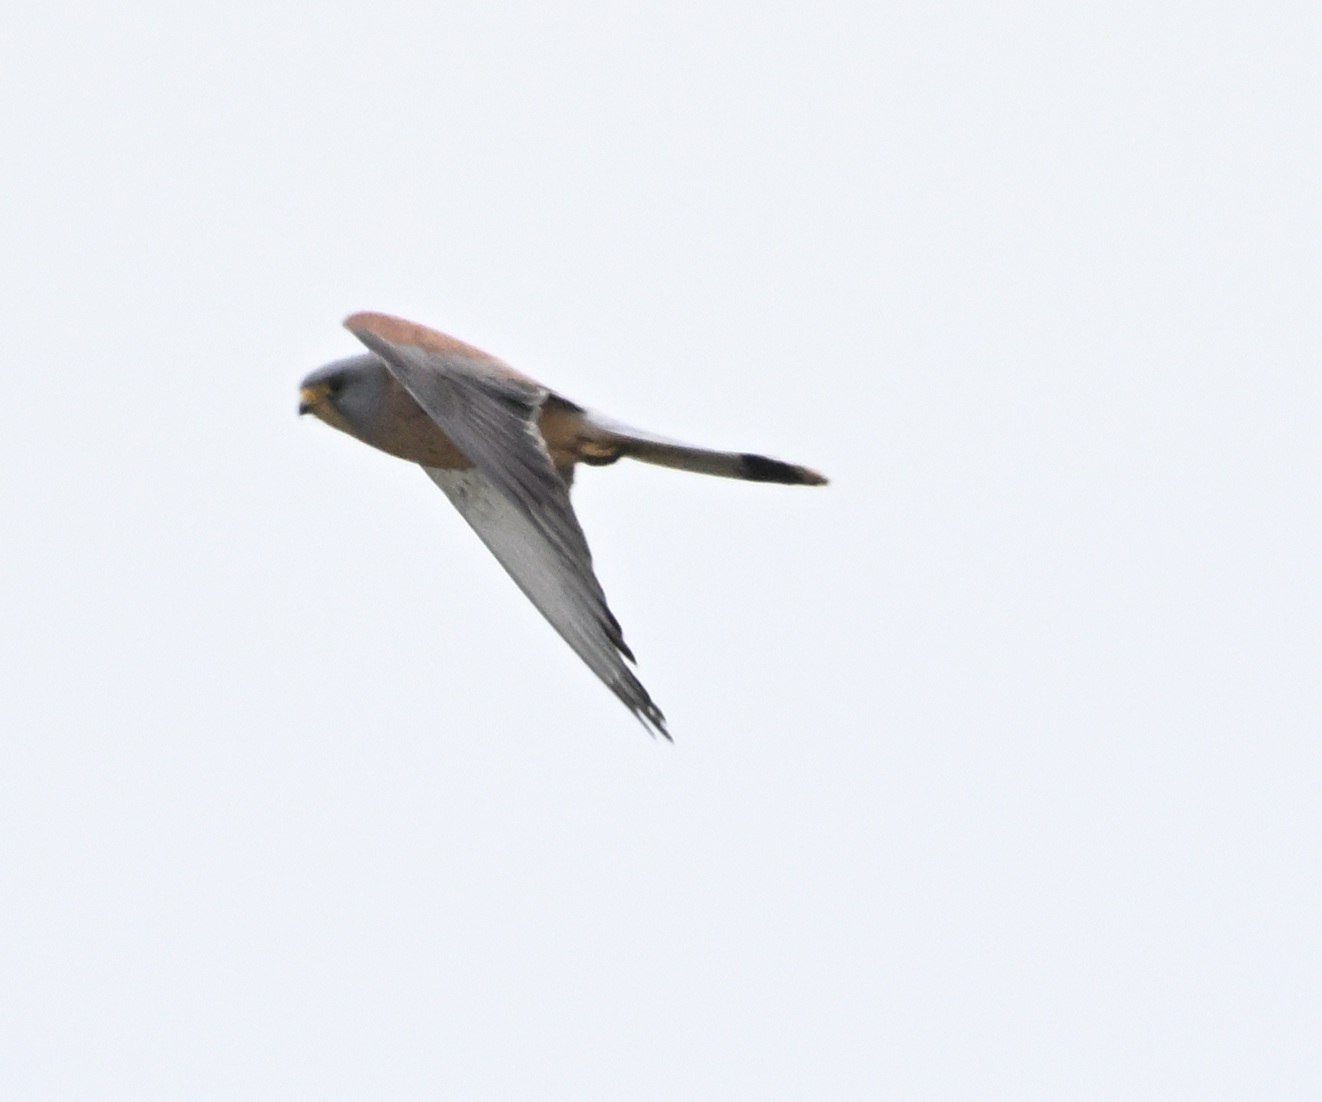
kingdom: Animalia
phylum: Chordata
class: Aves
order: Falconiformes
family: Falconidae
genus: Falco
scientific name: Falco naumanni
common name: Lesser kestrel
